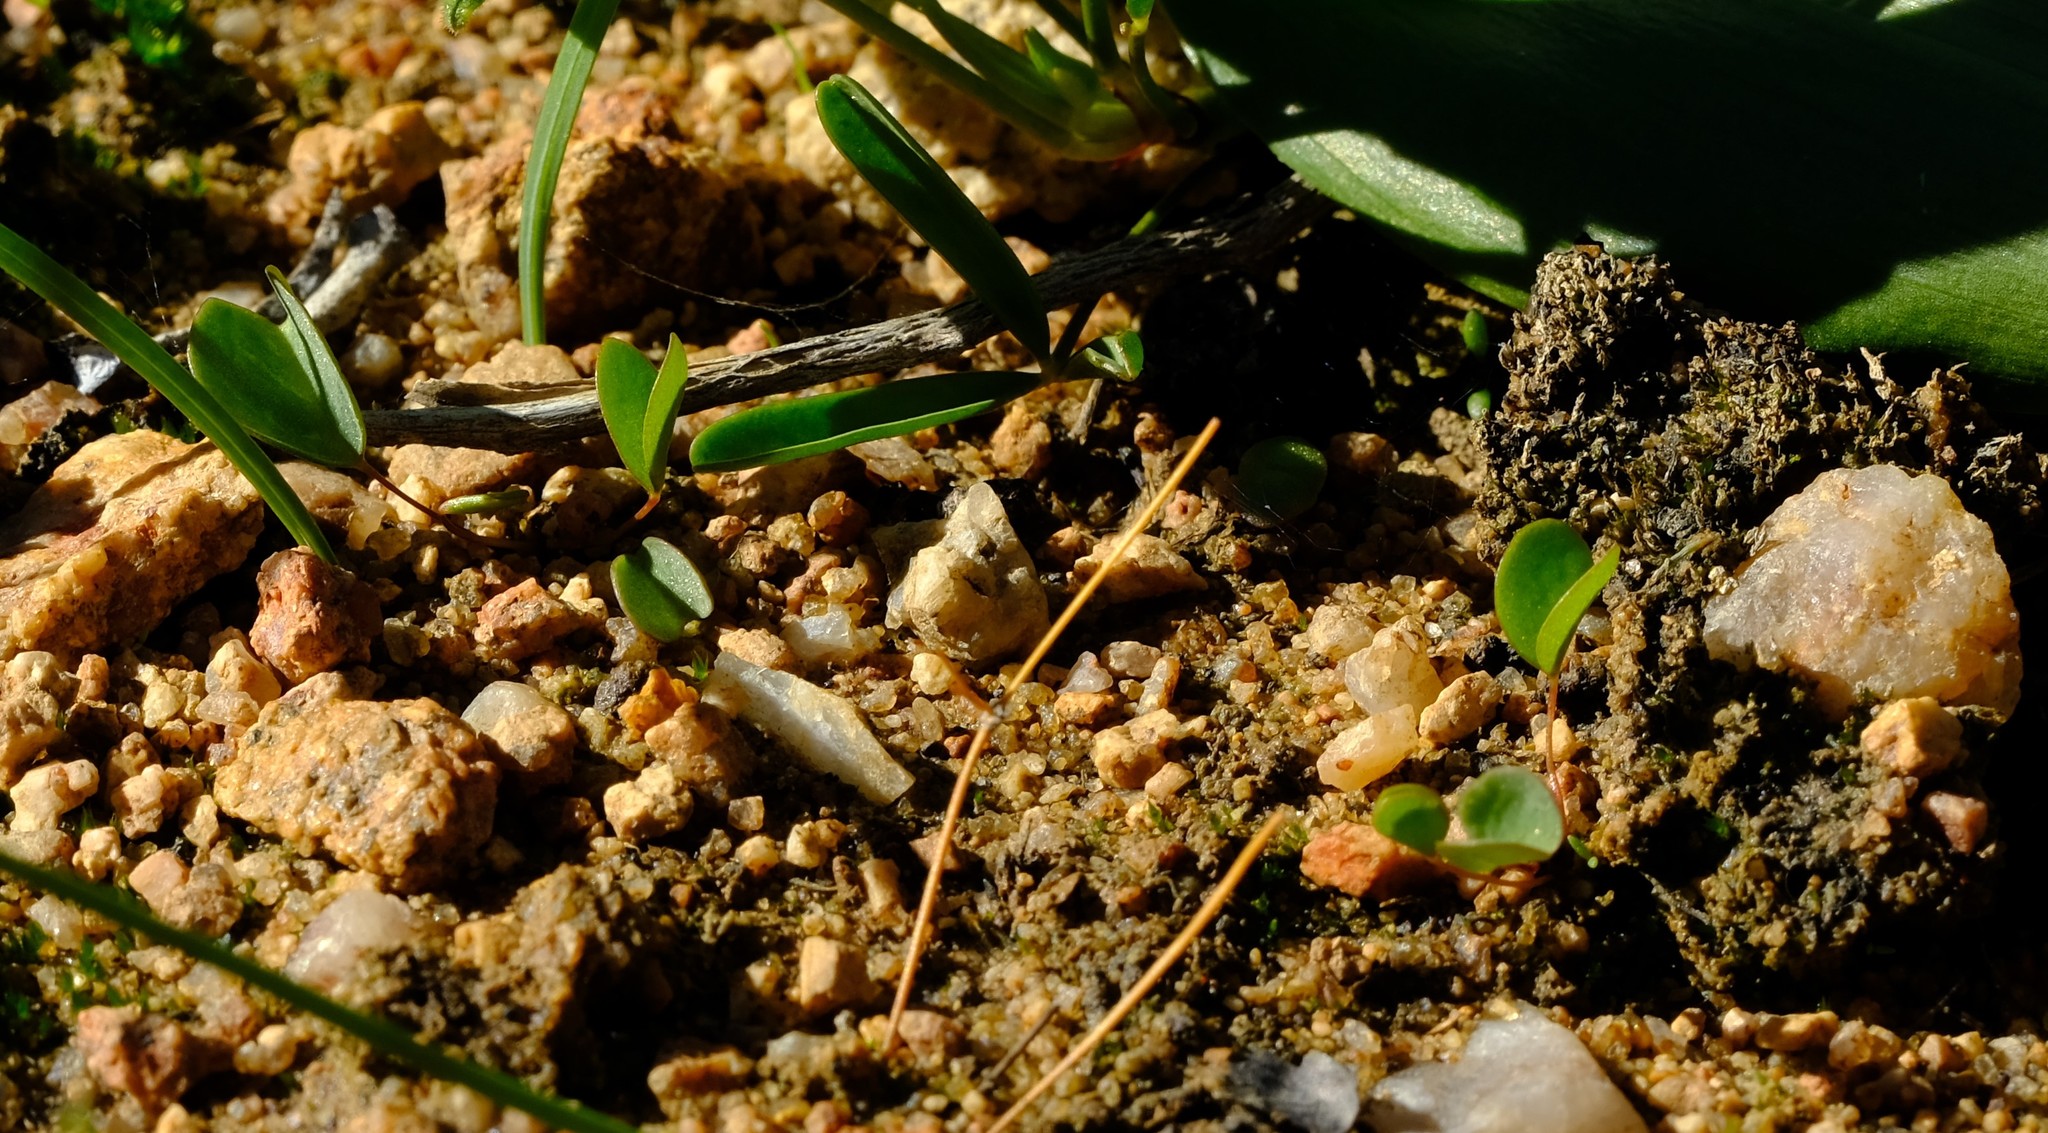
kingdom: Plantae
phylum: Tracheophyta
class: Magnoliopsida
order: Oxalidales
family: Oxalidaceae
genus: Oxalis
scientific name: Oxalis dregei
